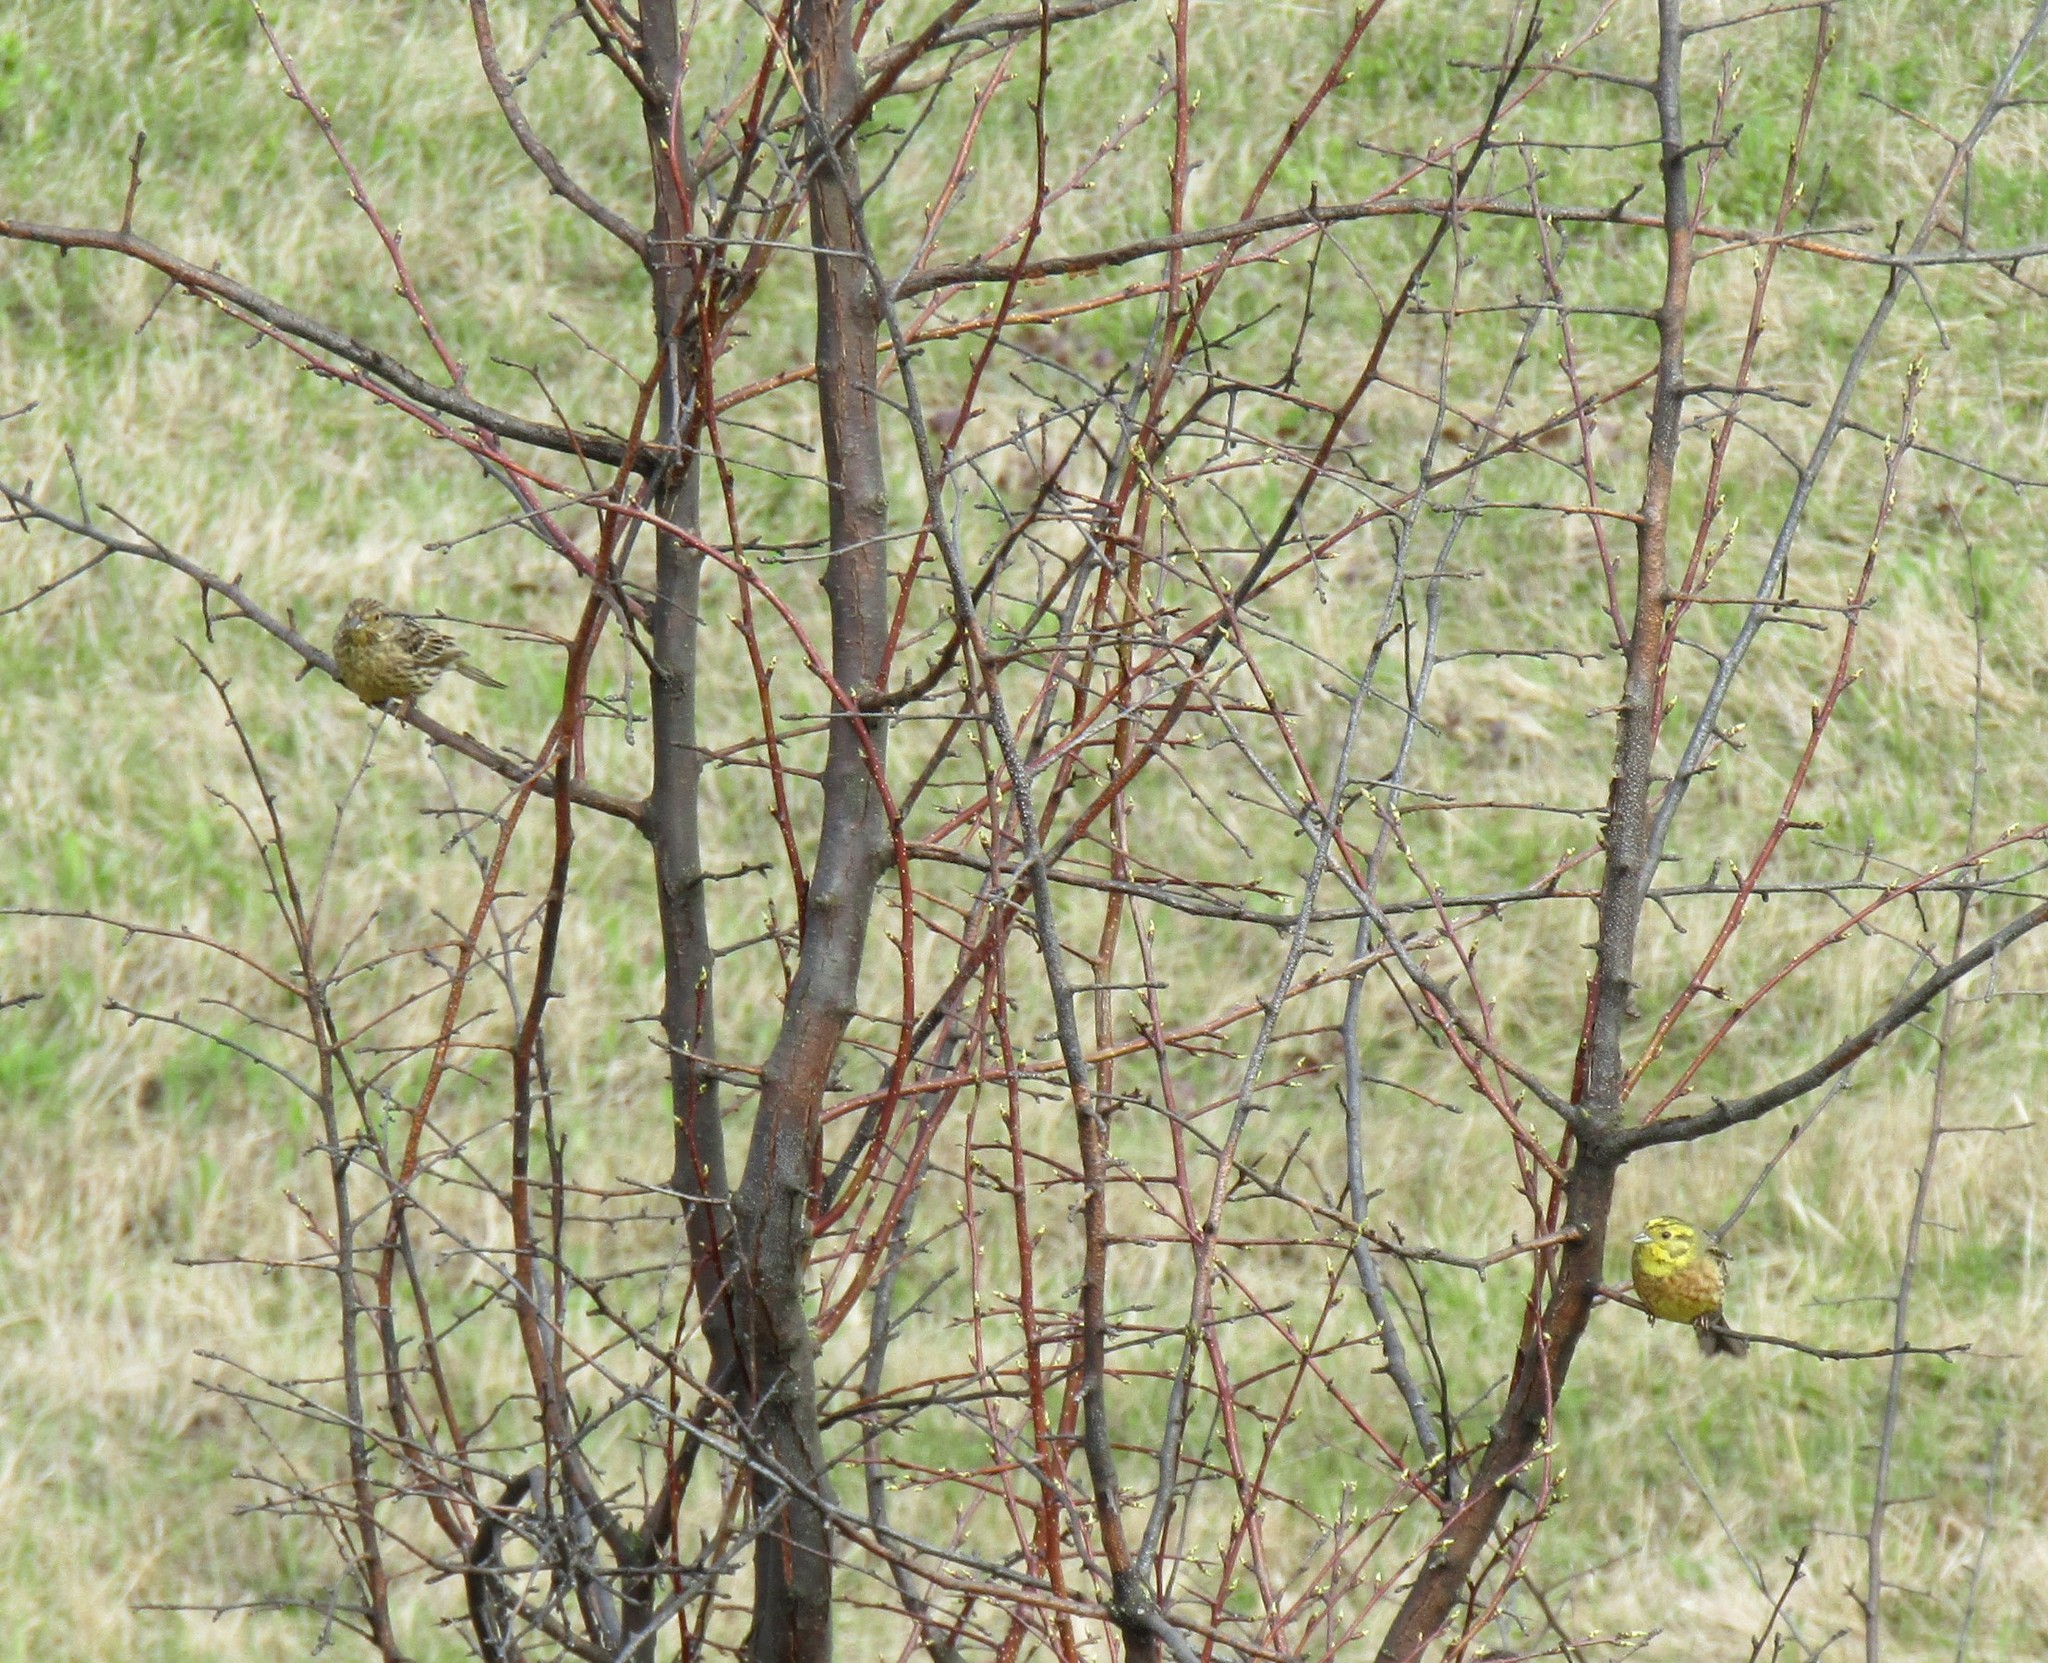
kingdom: Animalia
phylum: Chordata
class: Aves
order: Passeriformes
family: Emberizidae
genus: Emberiza
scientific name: Emberiza citrinella
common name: Yellowhammer
